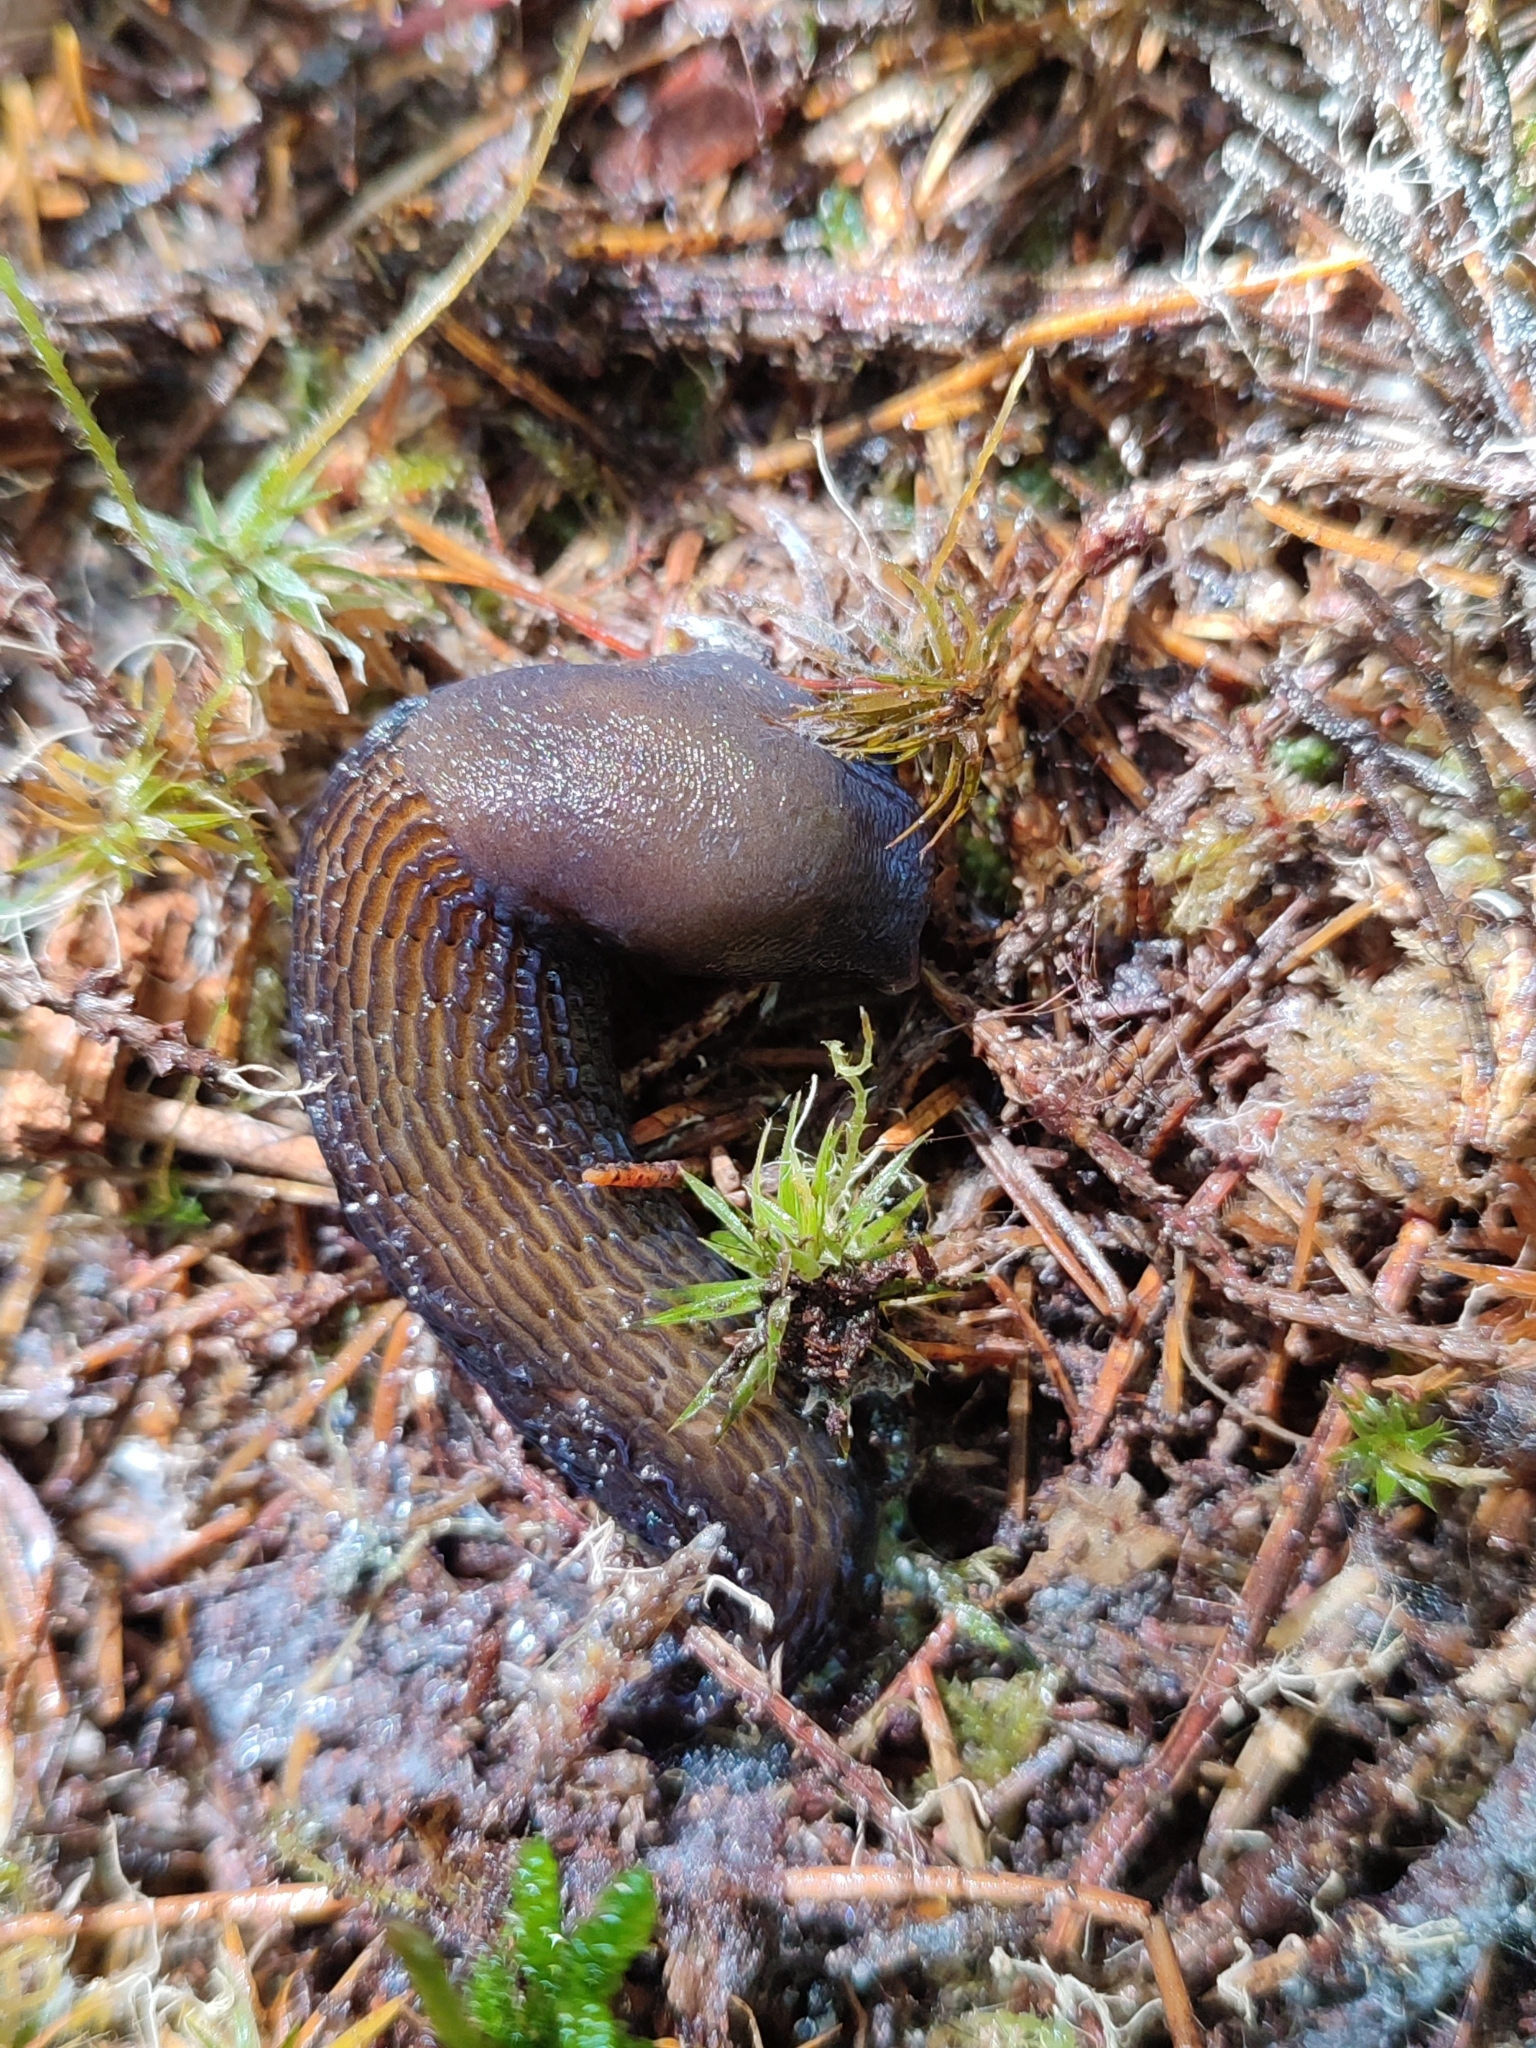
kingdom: Animalia
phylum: Mollusca
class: Gastropoda
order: Stylommatophora
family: Limacidae
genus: Bielzia
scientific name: Bielzia coerulans
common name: Carpathian blue slug
